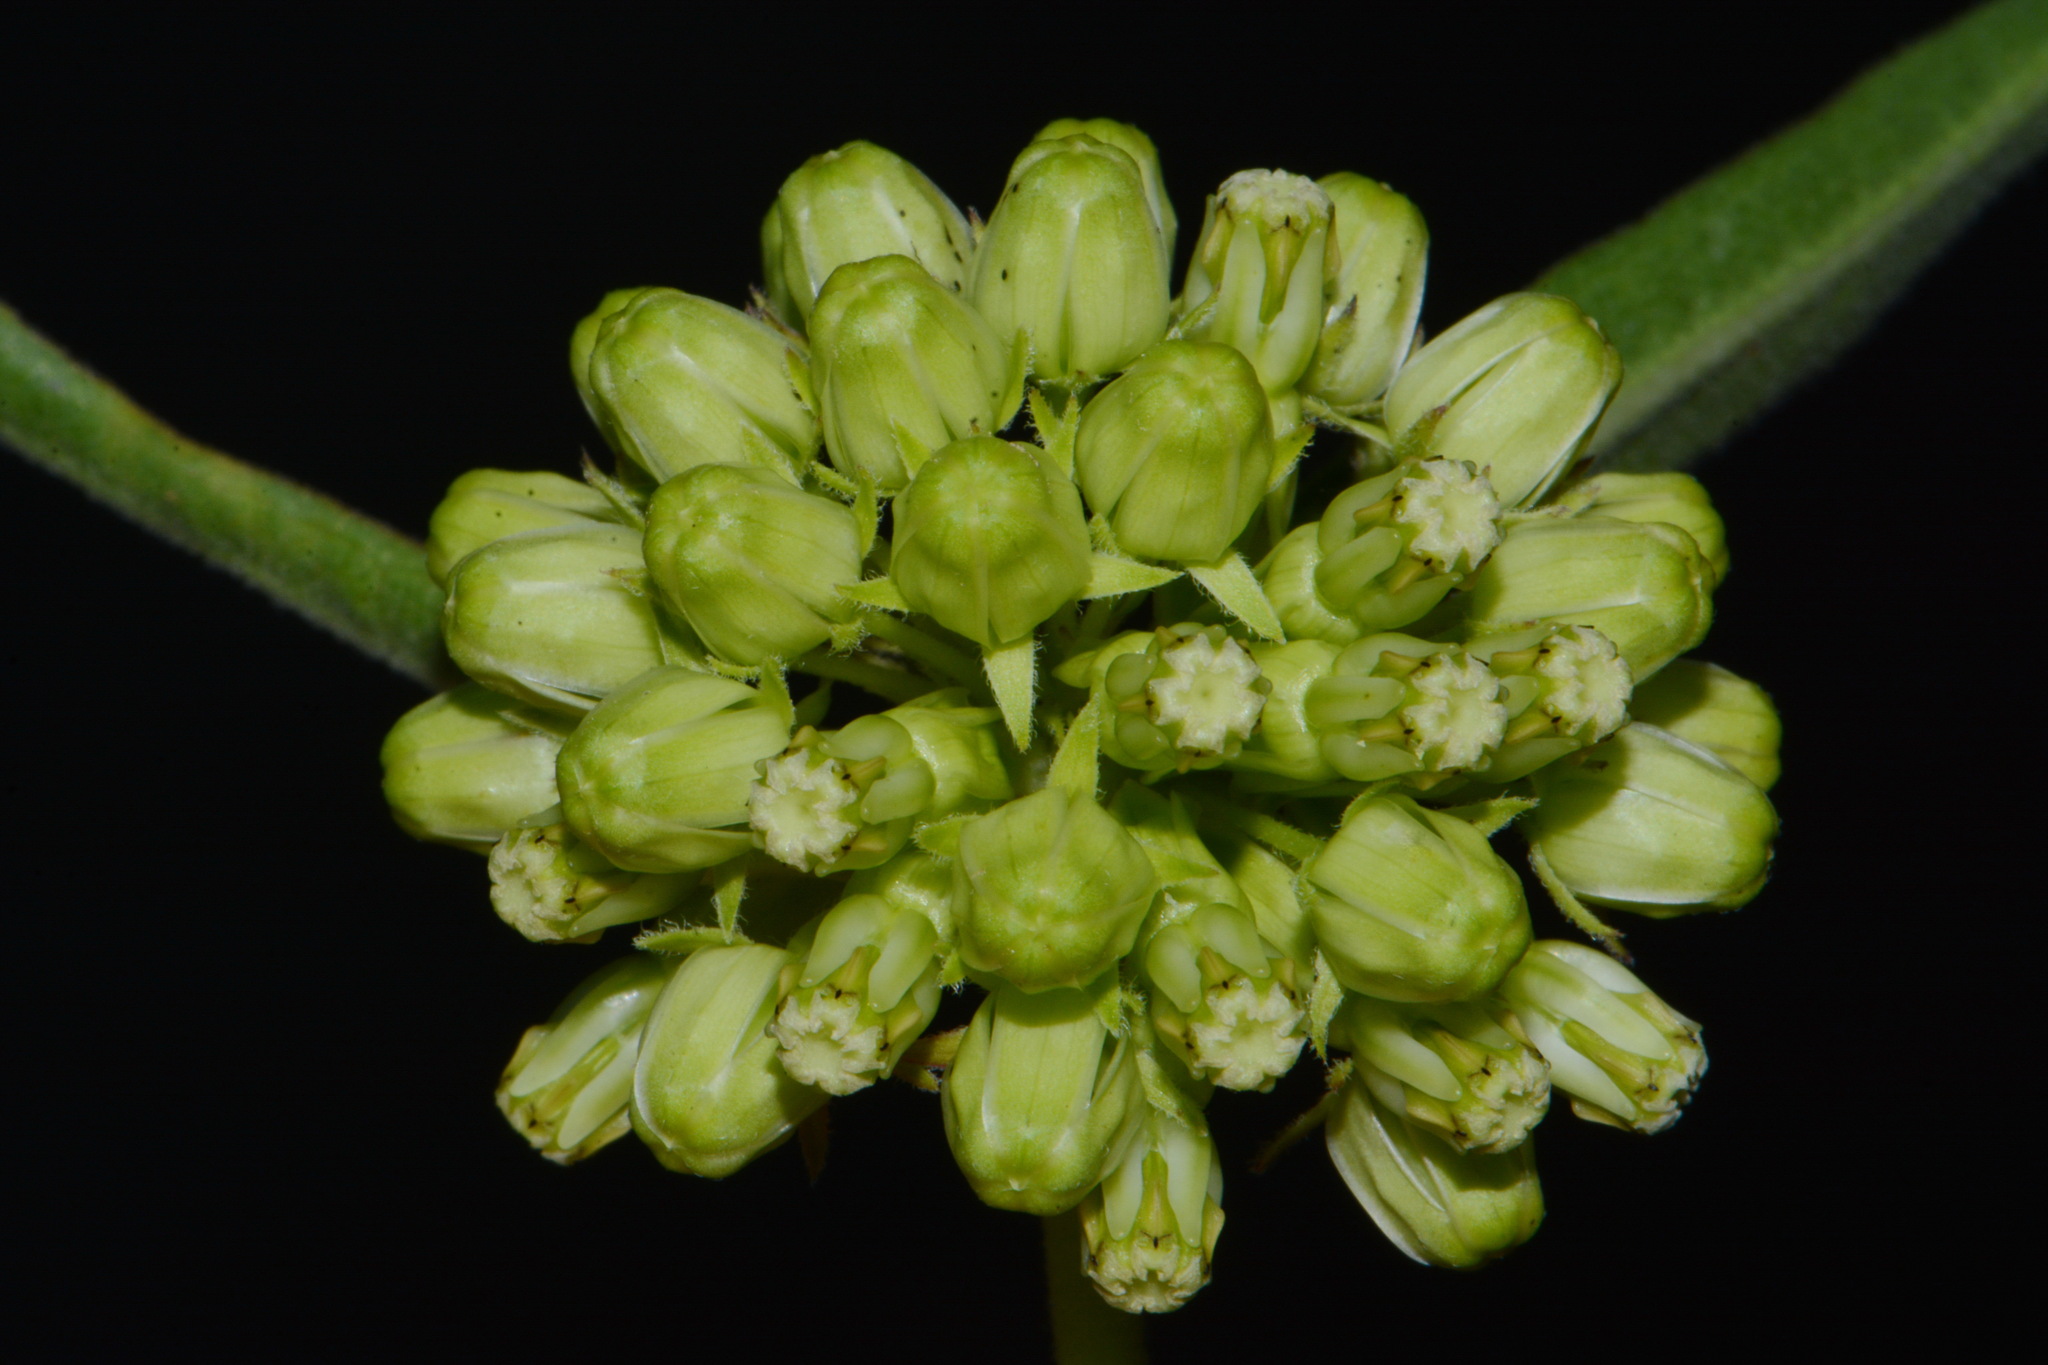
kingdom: Plantae
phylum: Tracheophyta
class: Magnoliopsida
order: Gentianales
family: Apocynaceae
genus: Asclepias
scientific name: Asclepias viridiflora
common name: Green comet milkweed
